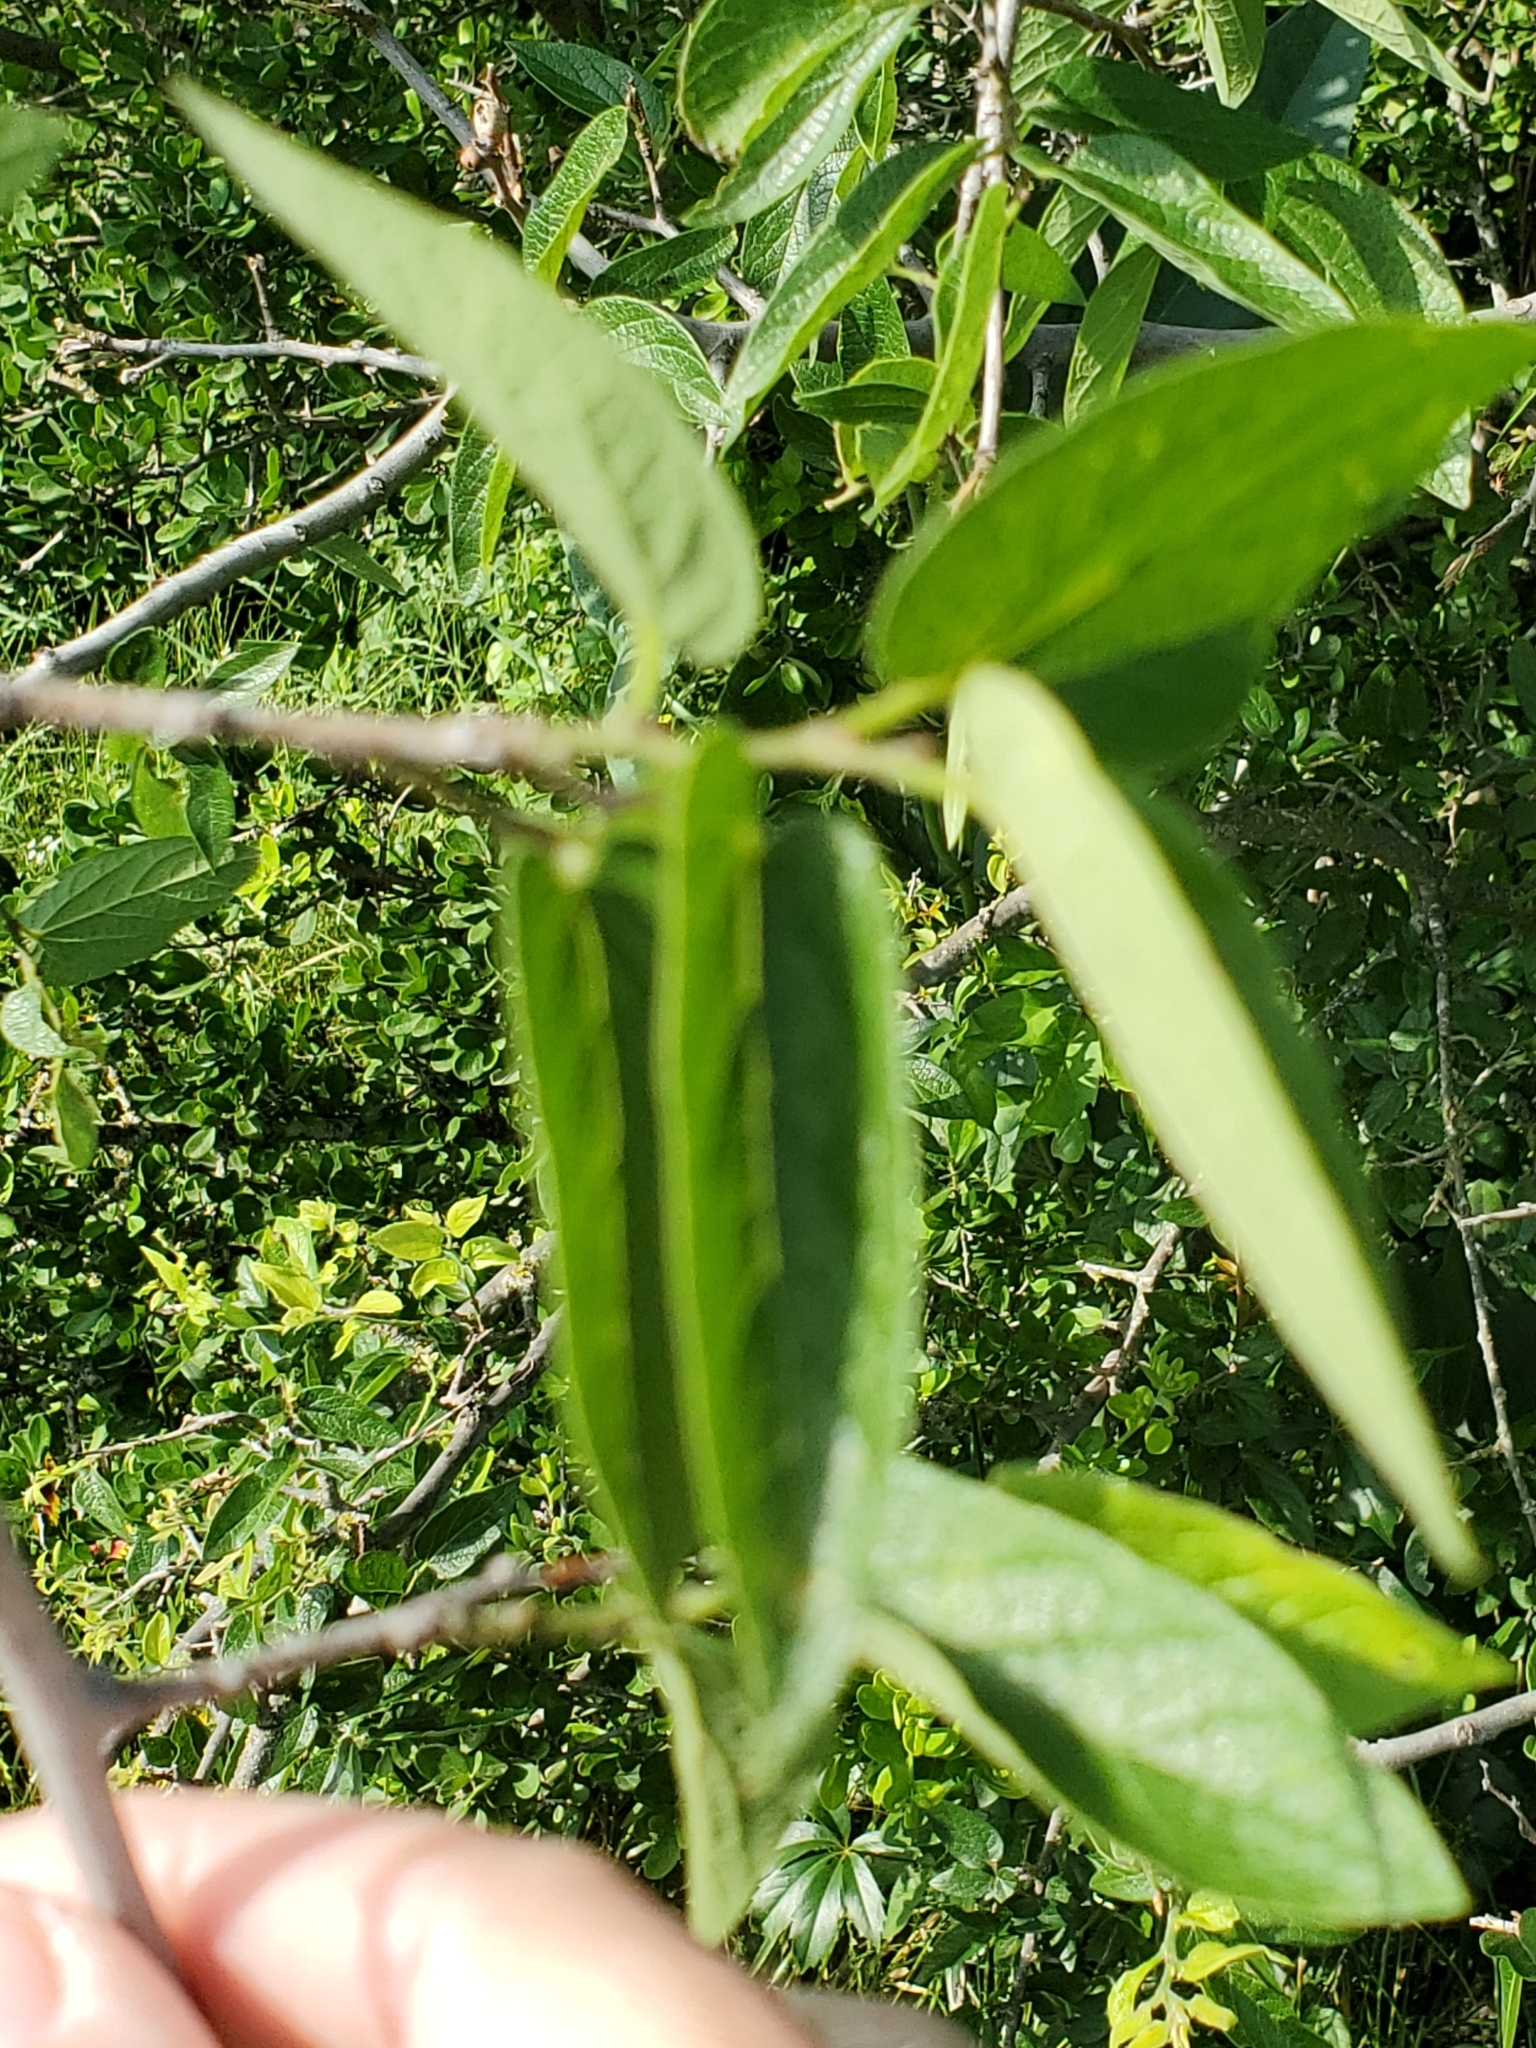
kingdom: Plantae
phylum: Tracheophyta
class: Magnoliopsida
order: Rosales
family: Cannabaceae
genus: Celtis
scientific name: Celtis reticulata
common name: Netleaf hackberry
